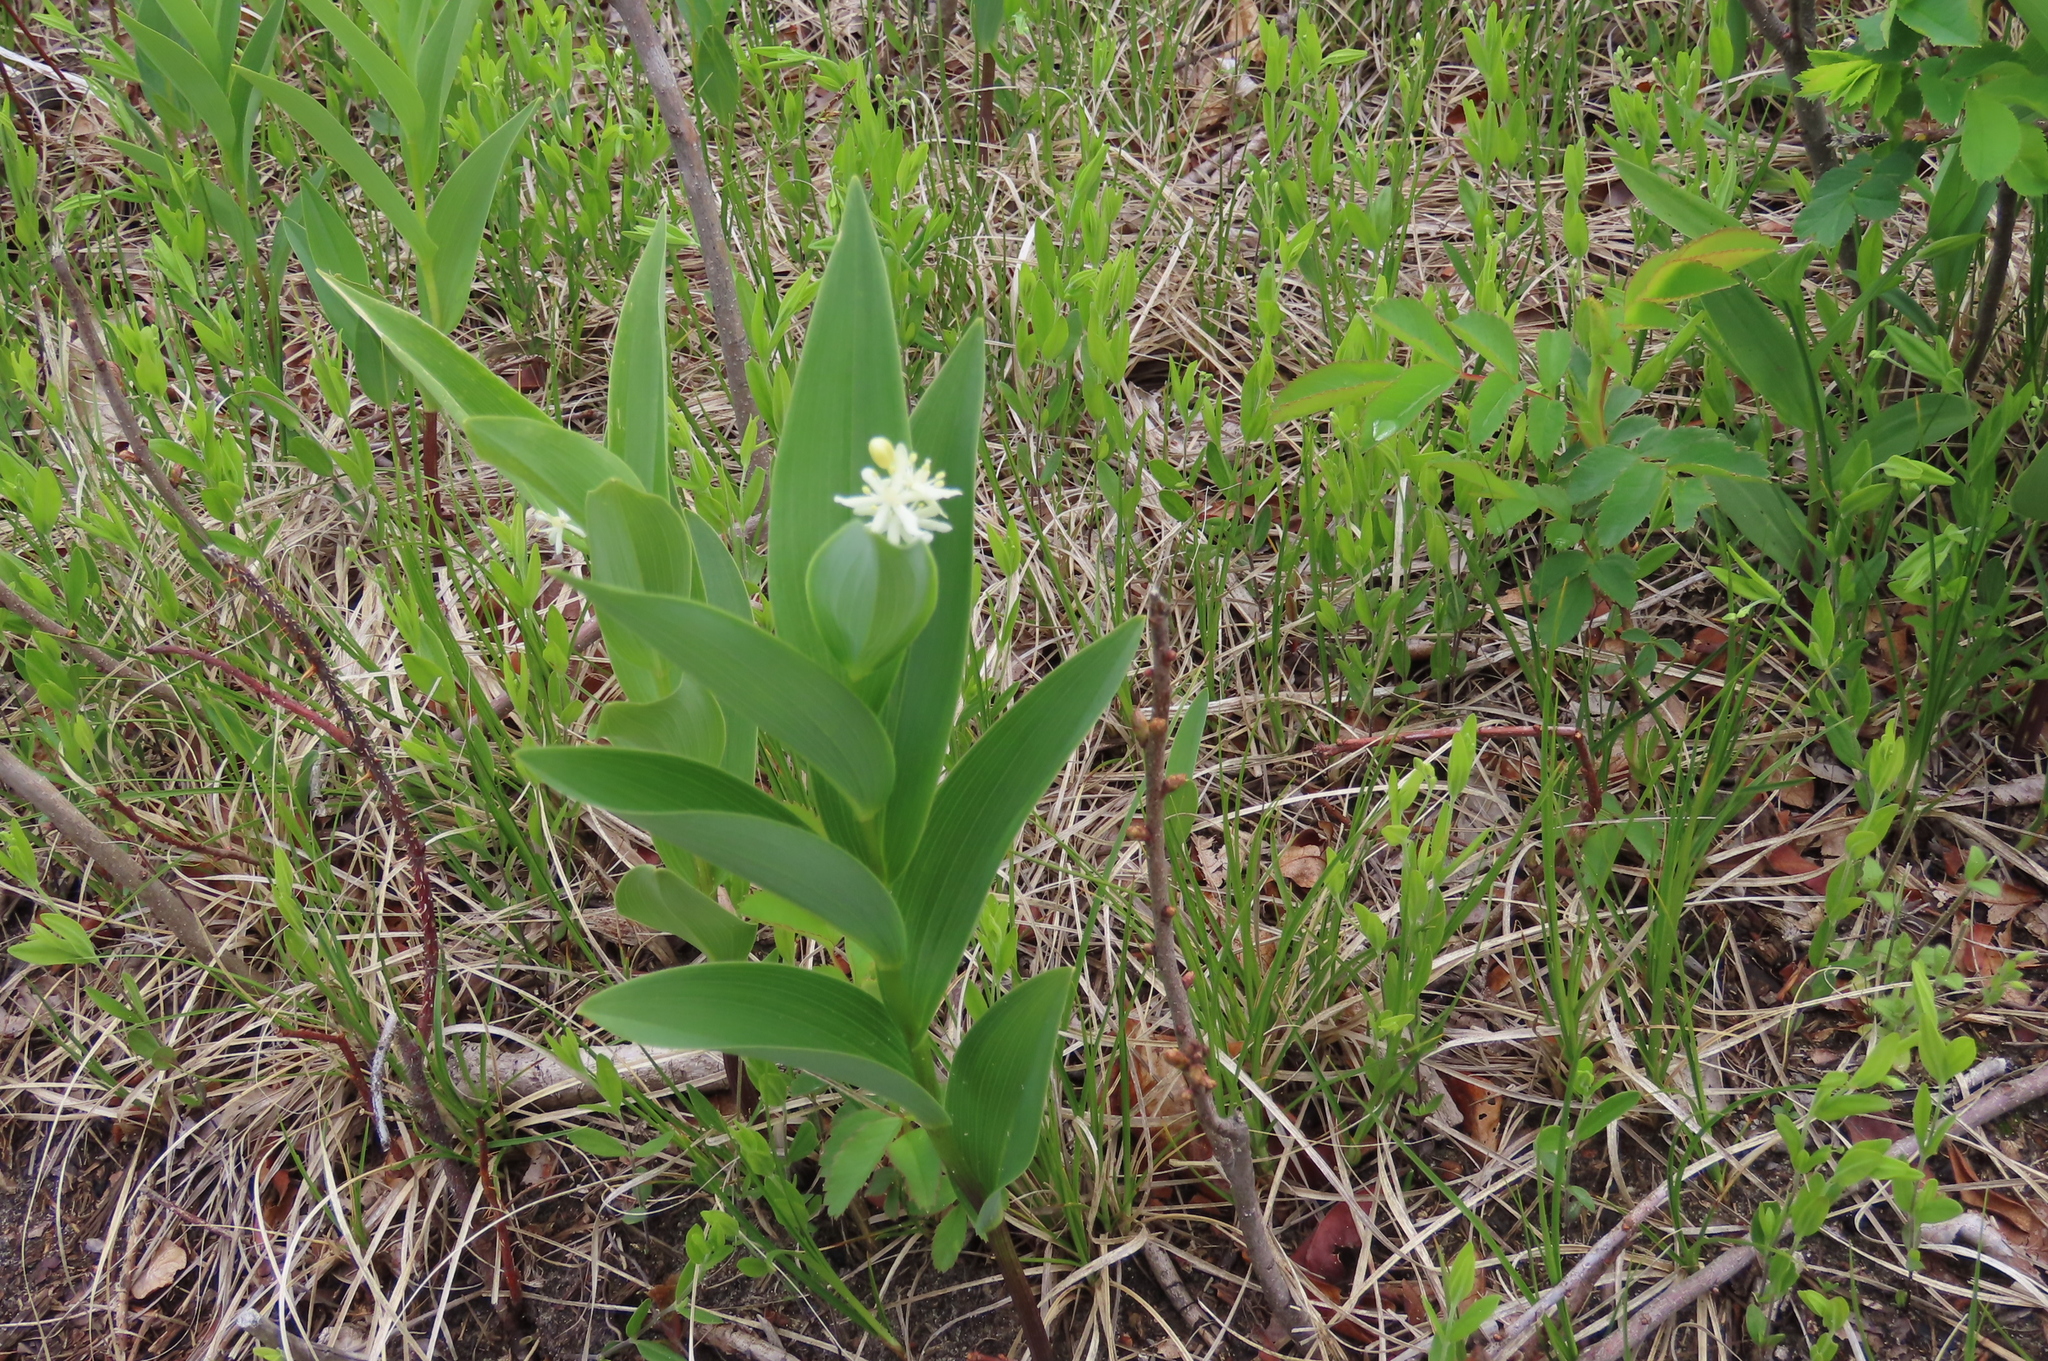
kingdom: Plantae
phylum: Tracheophyta
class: Liliopsida
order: Asparagales
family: Asparagaceae
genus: Maianthemum
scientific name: Maianthemum stellatum
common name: Little false solomon's seal
